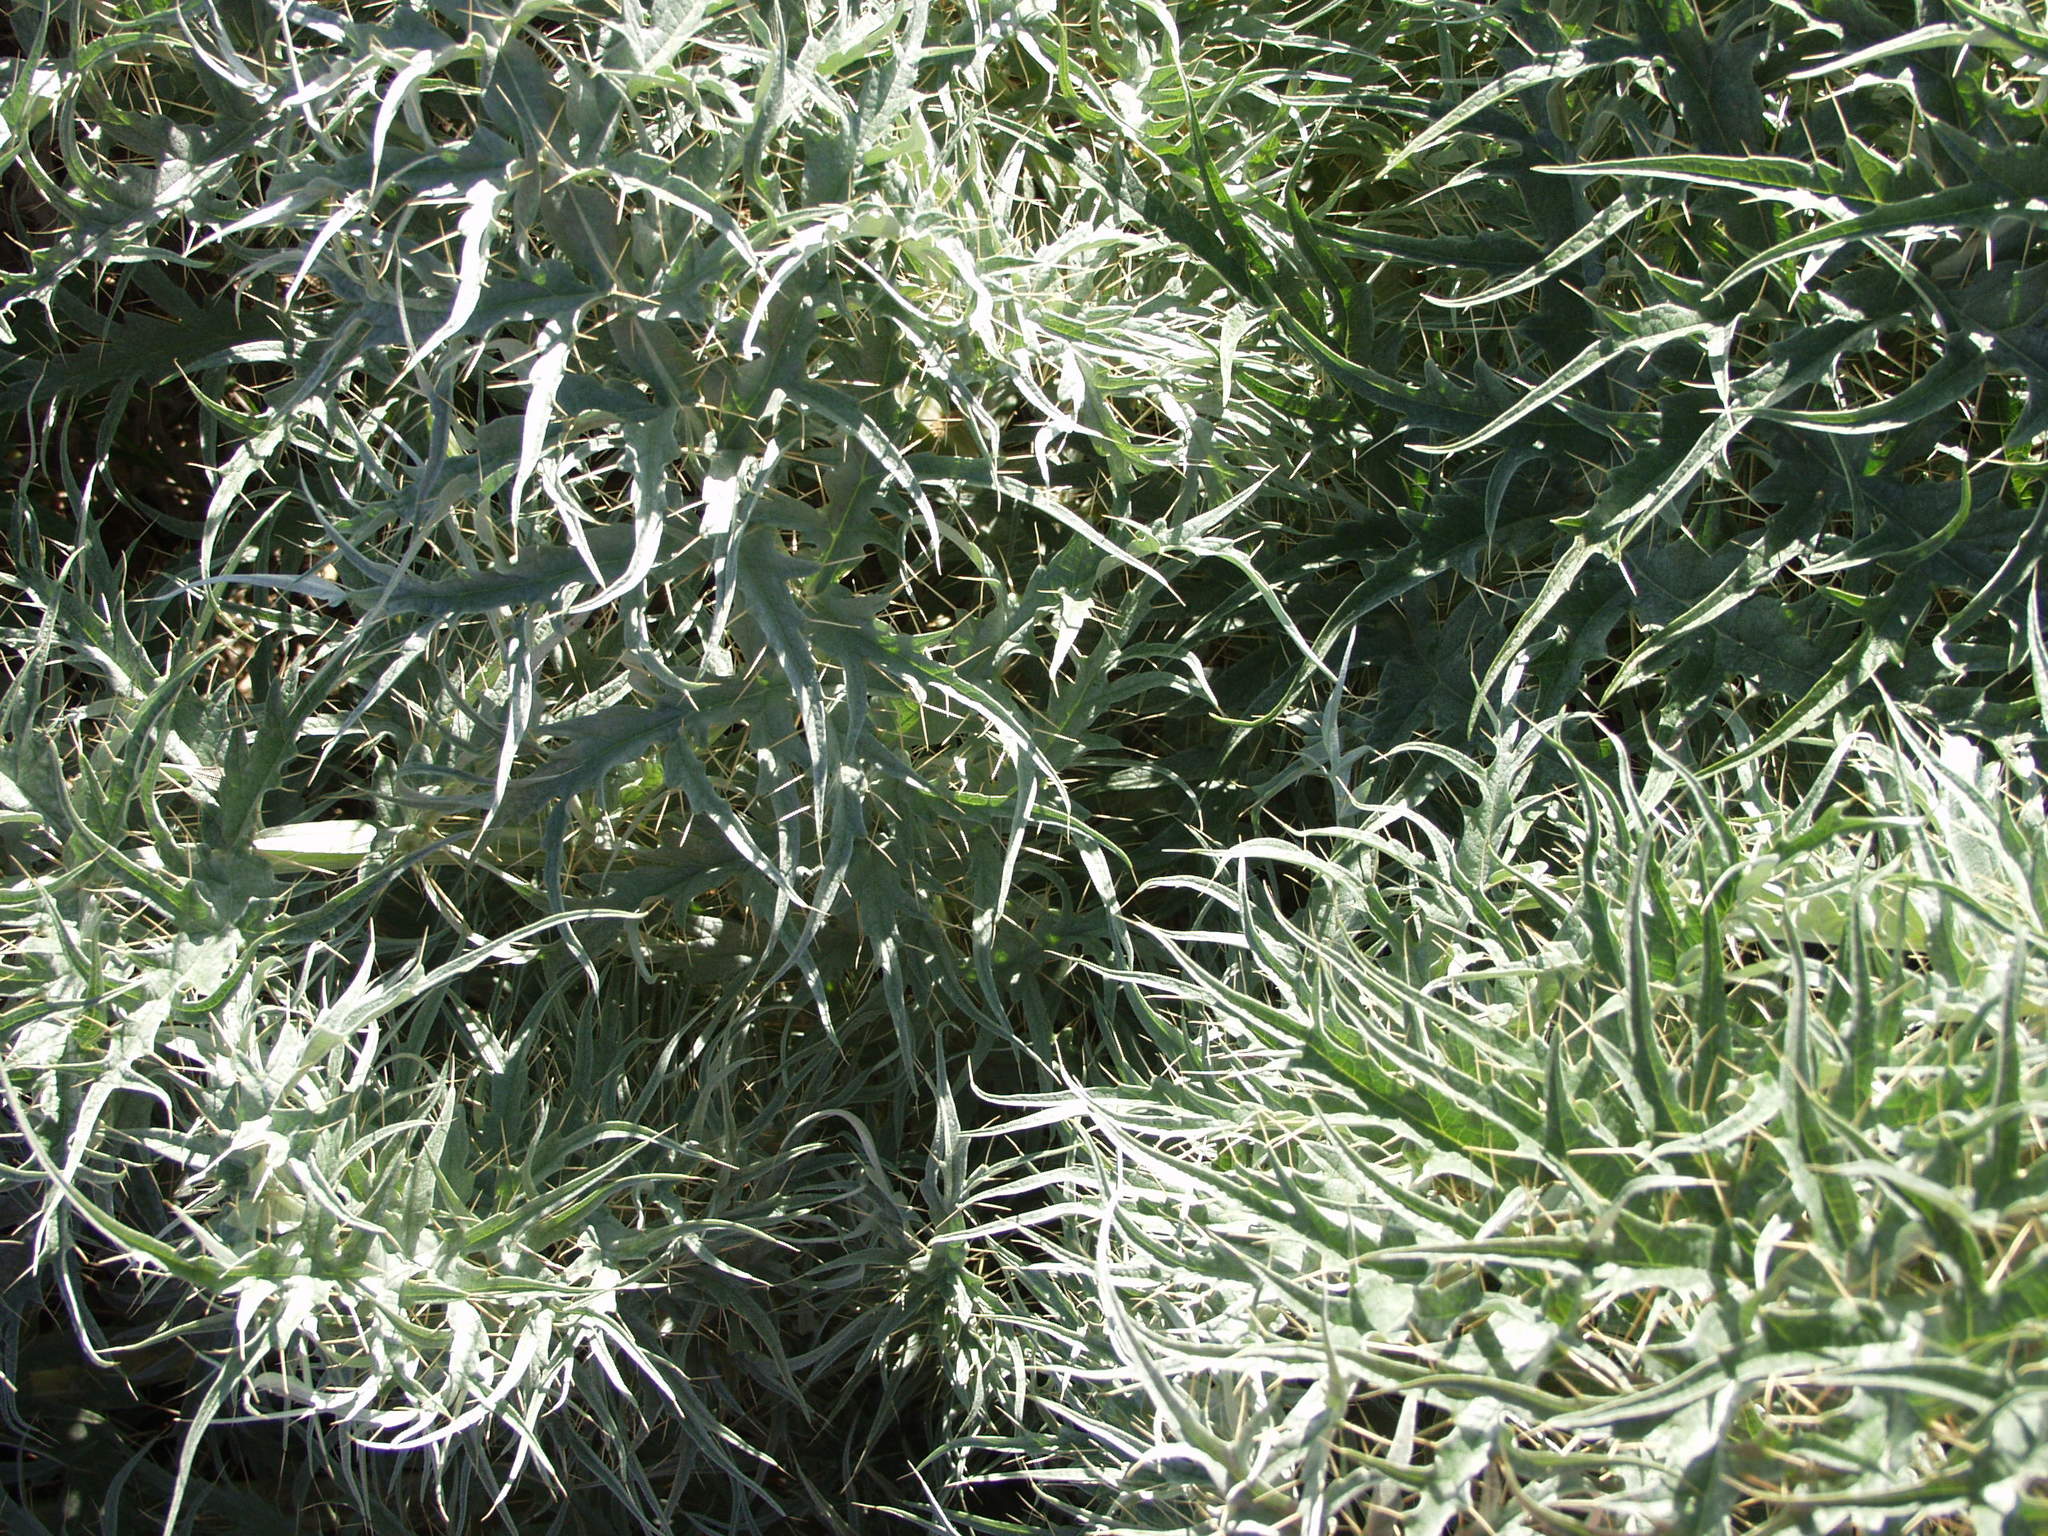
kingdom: Plantae
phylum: Tracheophyta
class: Magnoliopsida
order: Asterales
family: Asteraceae
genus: Cynara
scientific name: Cynara cardunculus
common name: Globe artichoke
